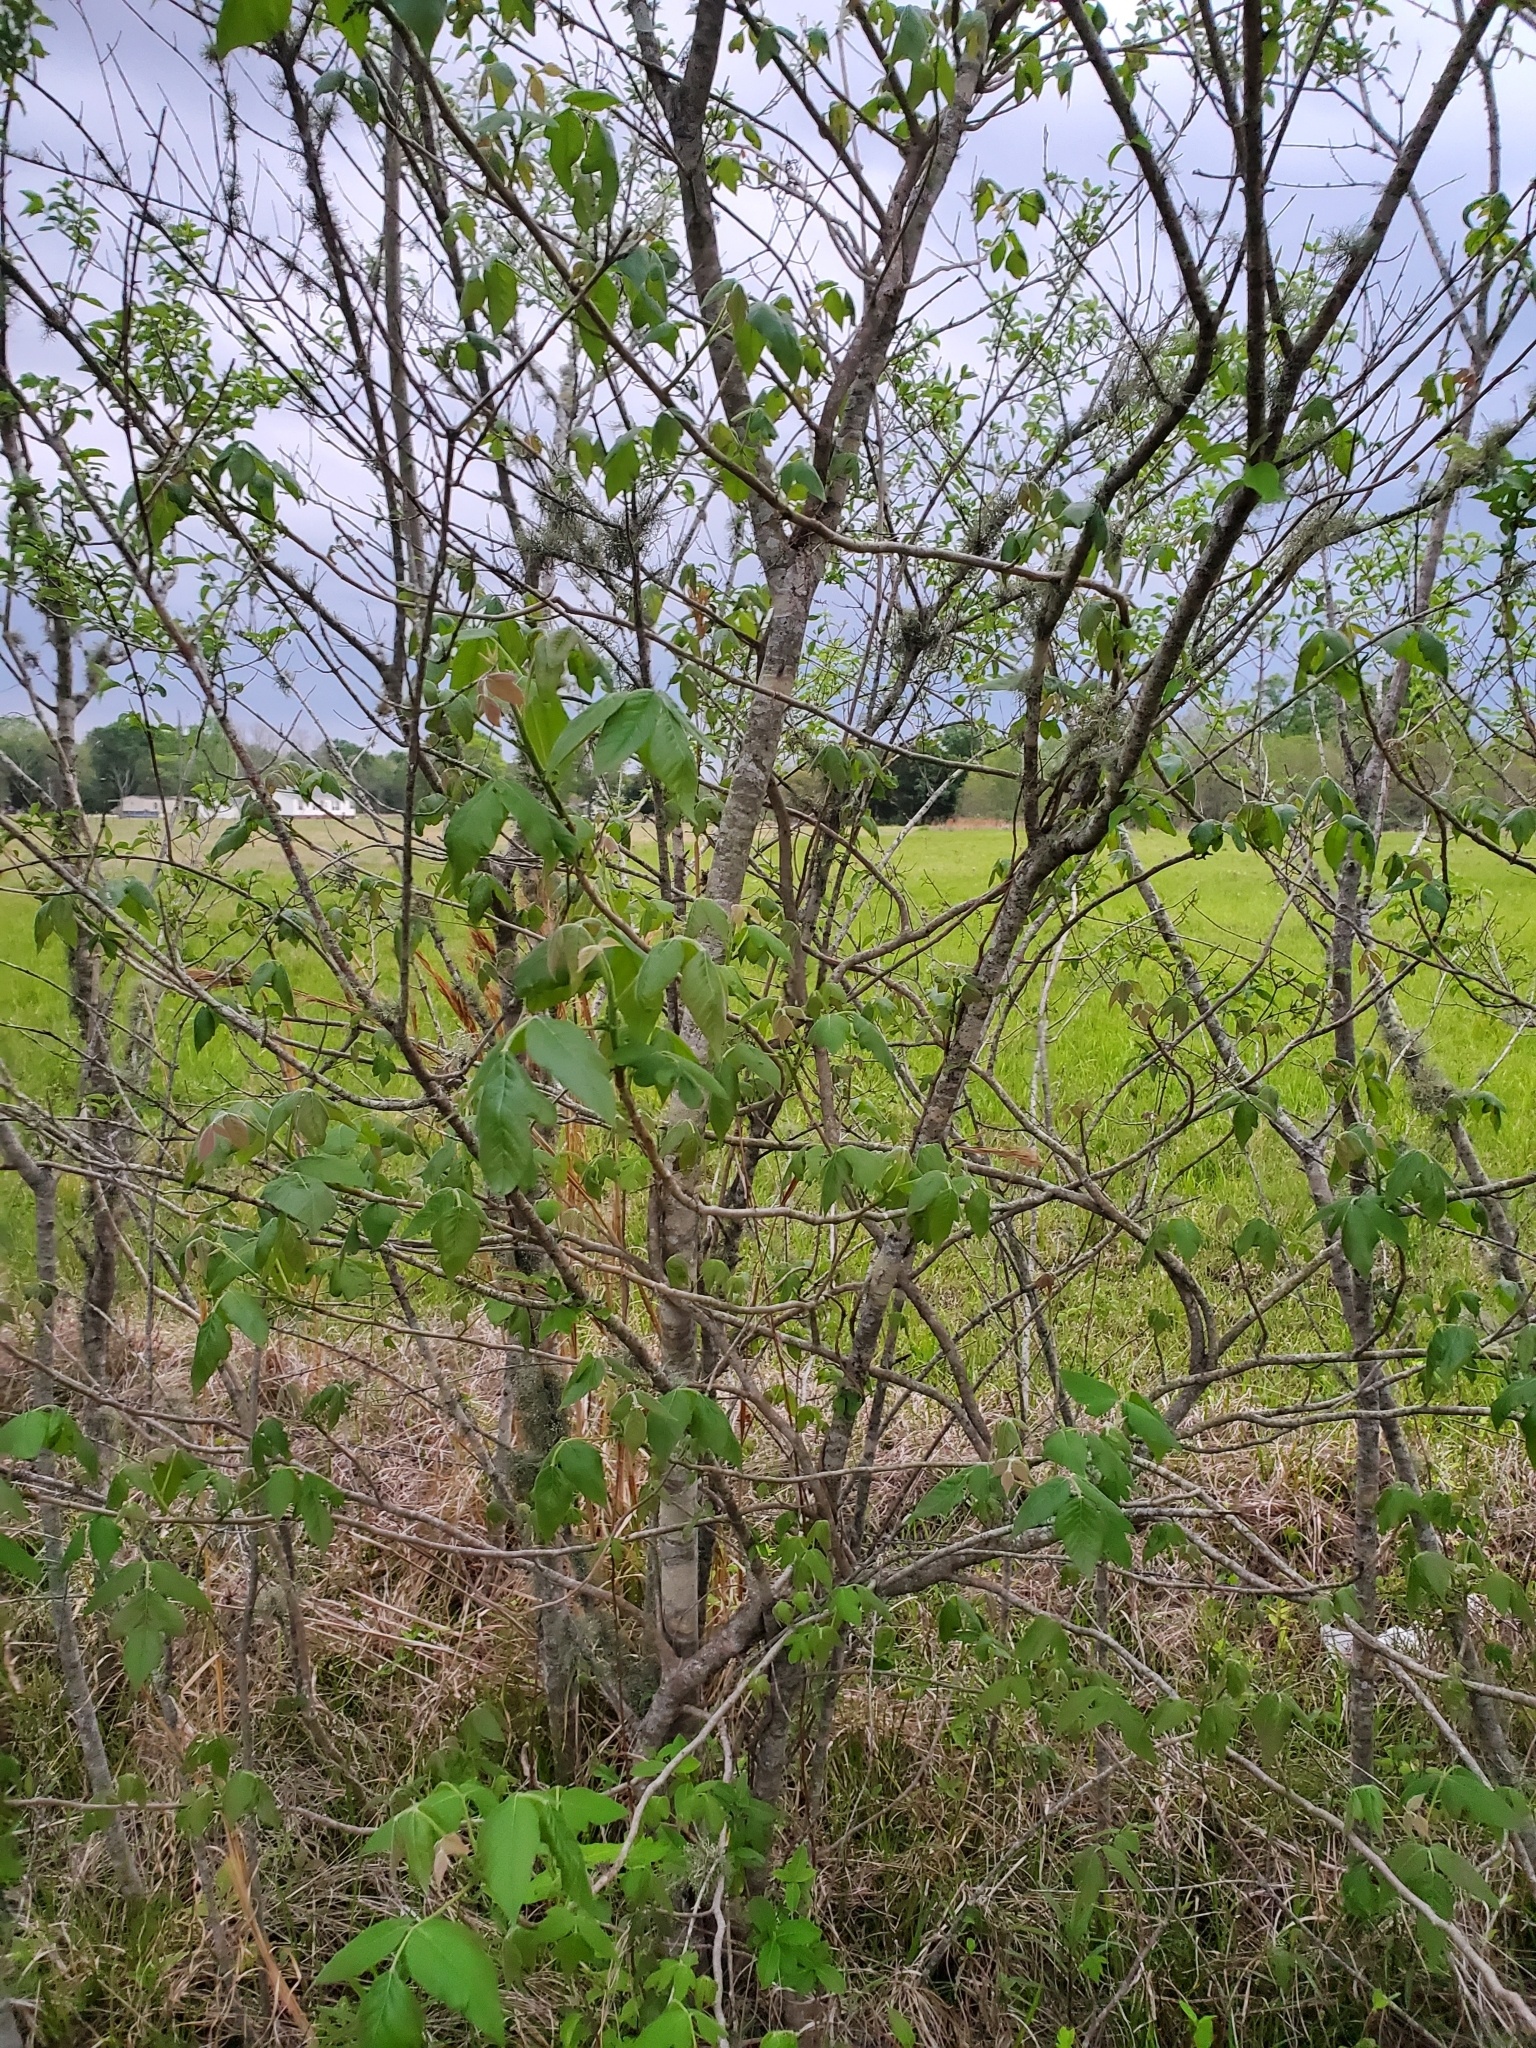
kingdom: Plantae
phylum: Tracheophyta
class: Magnoliopsida
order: Sapindales
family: Anacardiaceae
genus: Toxicodendron
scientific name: Toxicodendron radicans
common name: Poison ivy
